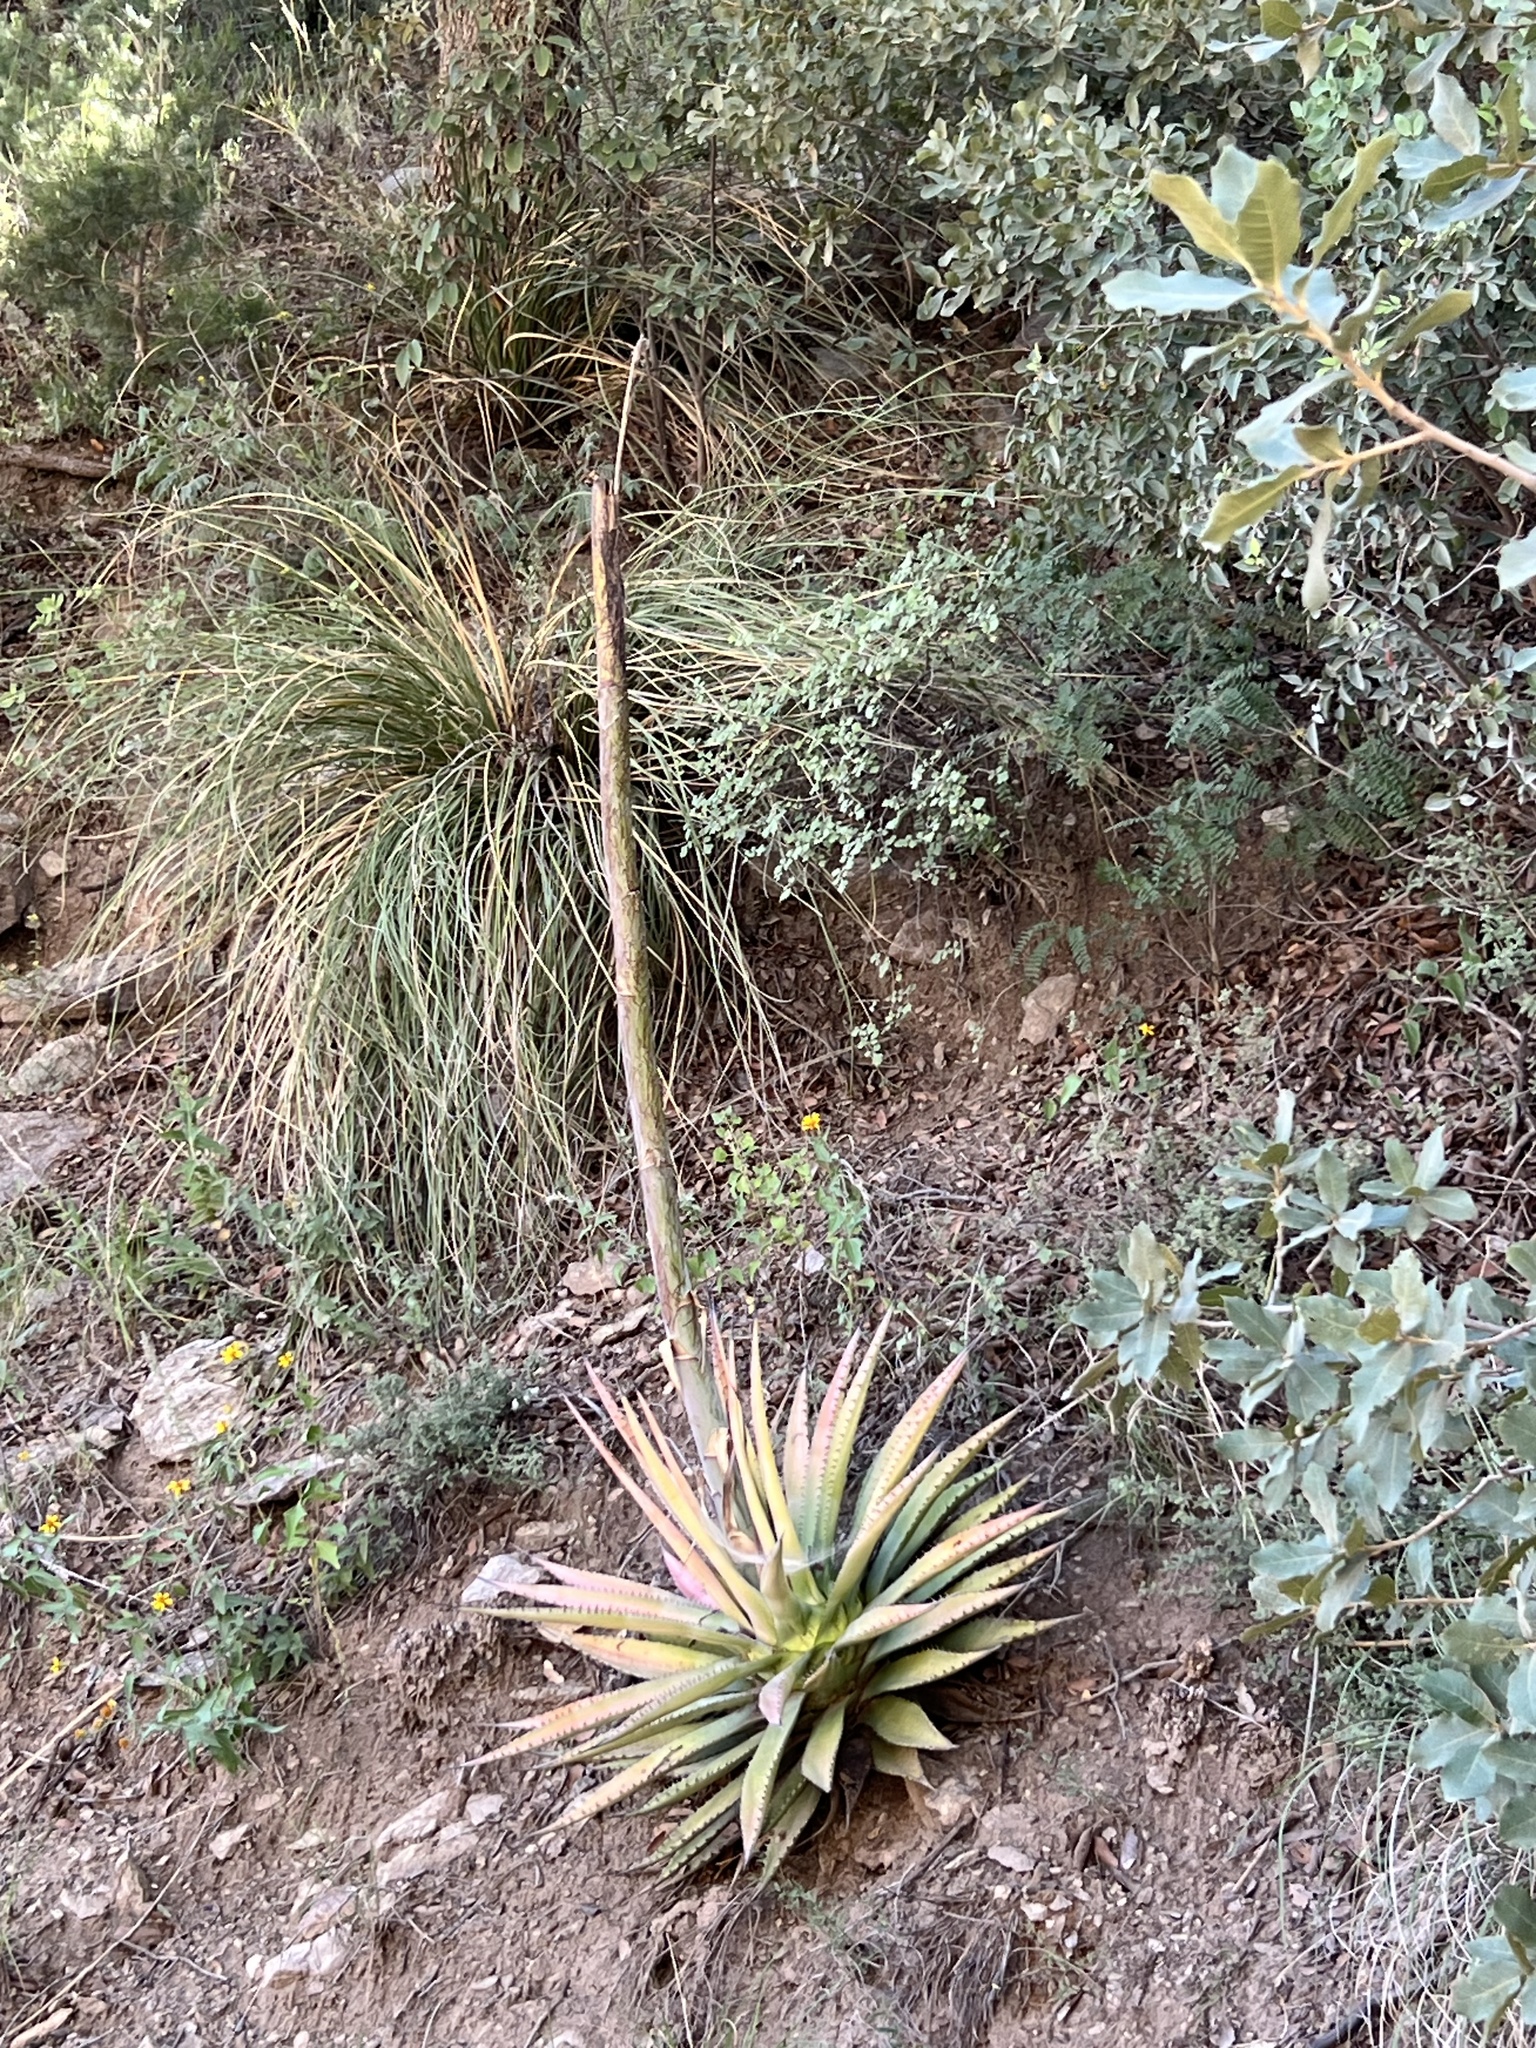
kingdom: Plantae
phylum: Tracheophyta
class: Liliopsida
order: Asparagales
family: Asparagaceae
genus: Agave
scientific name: Agave palmeri
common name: Palmer agave
